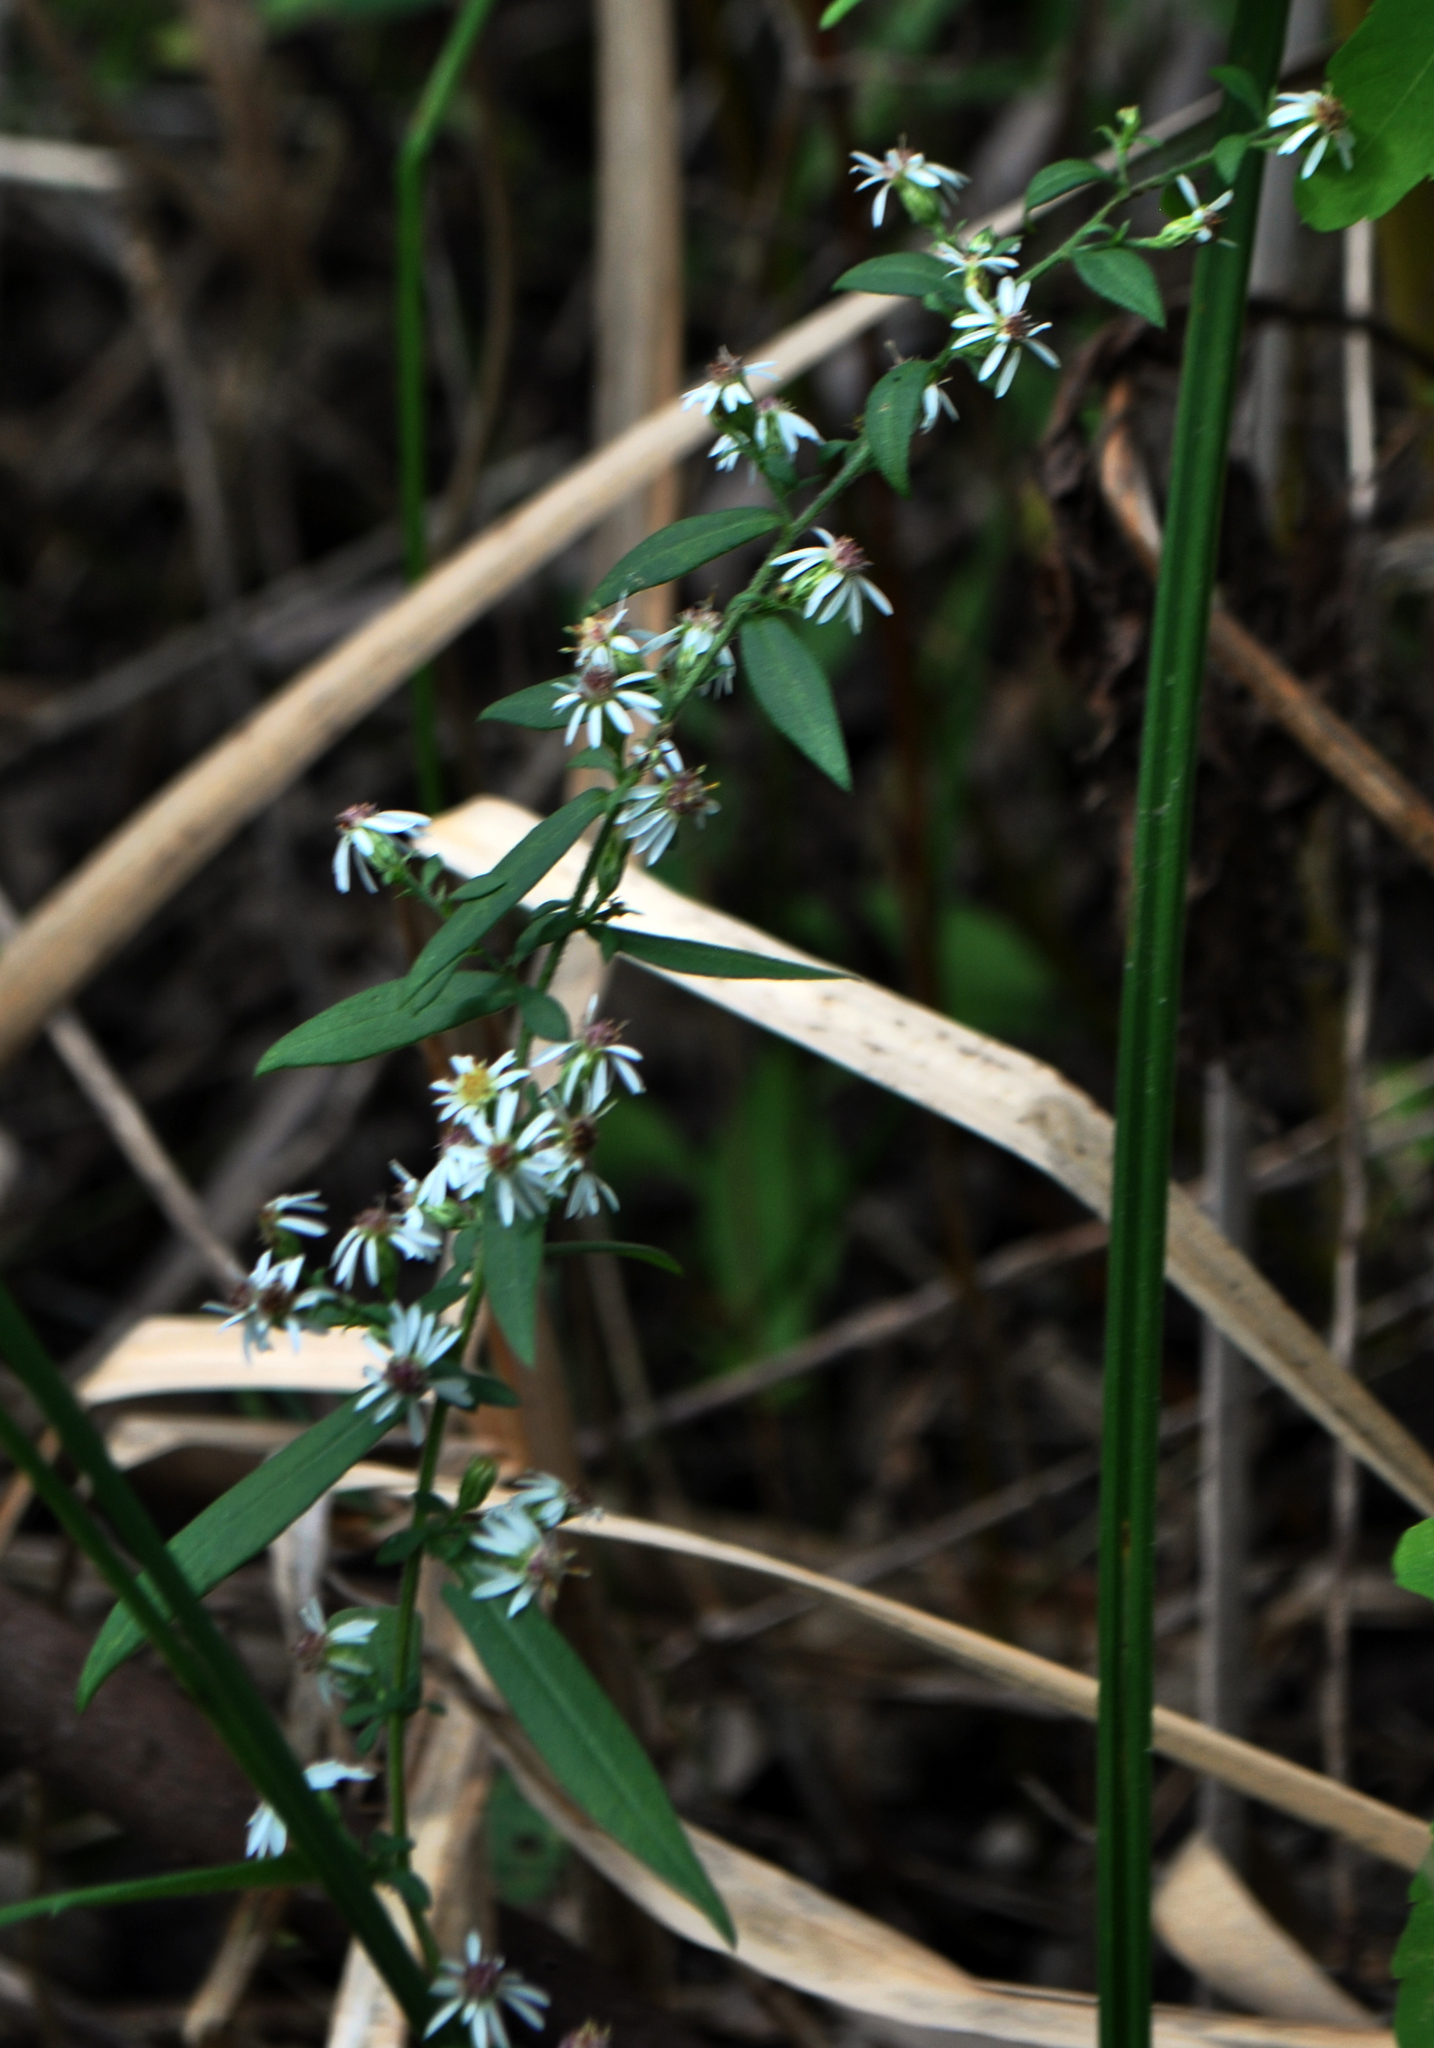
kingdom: Plantae
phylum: Tracheophyta
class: Magnoliopsida
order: Asterales
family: Asteraceae
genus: Symphyotrichum
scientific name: Symphyotrichum lateriflorum
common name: Calico aster
